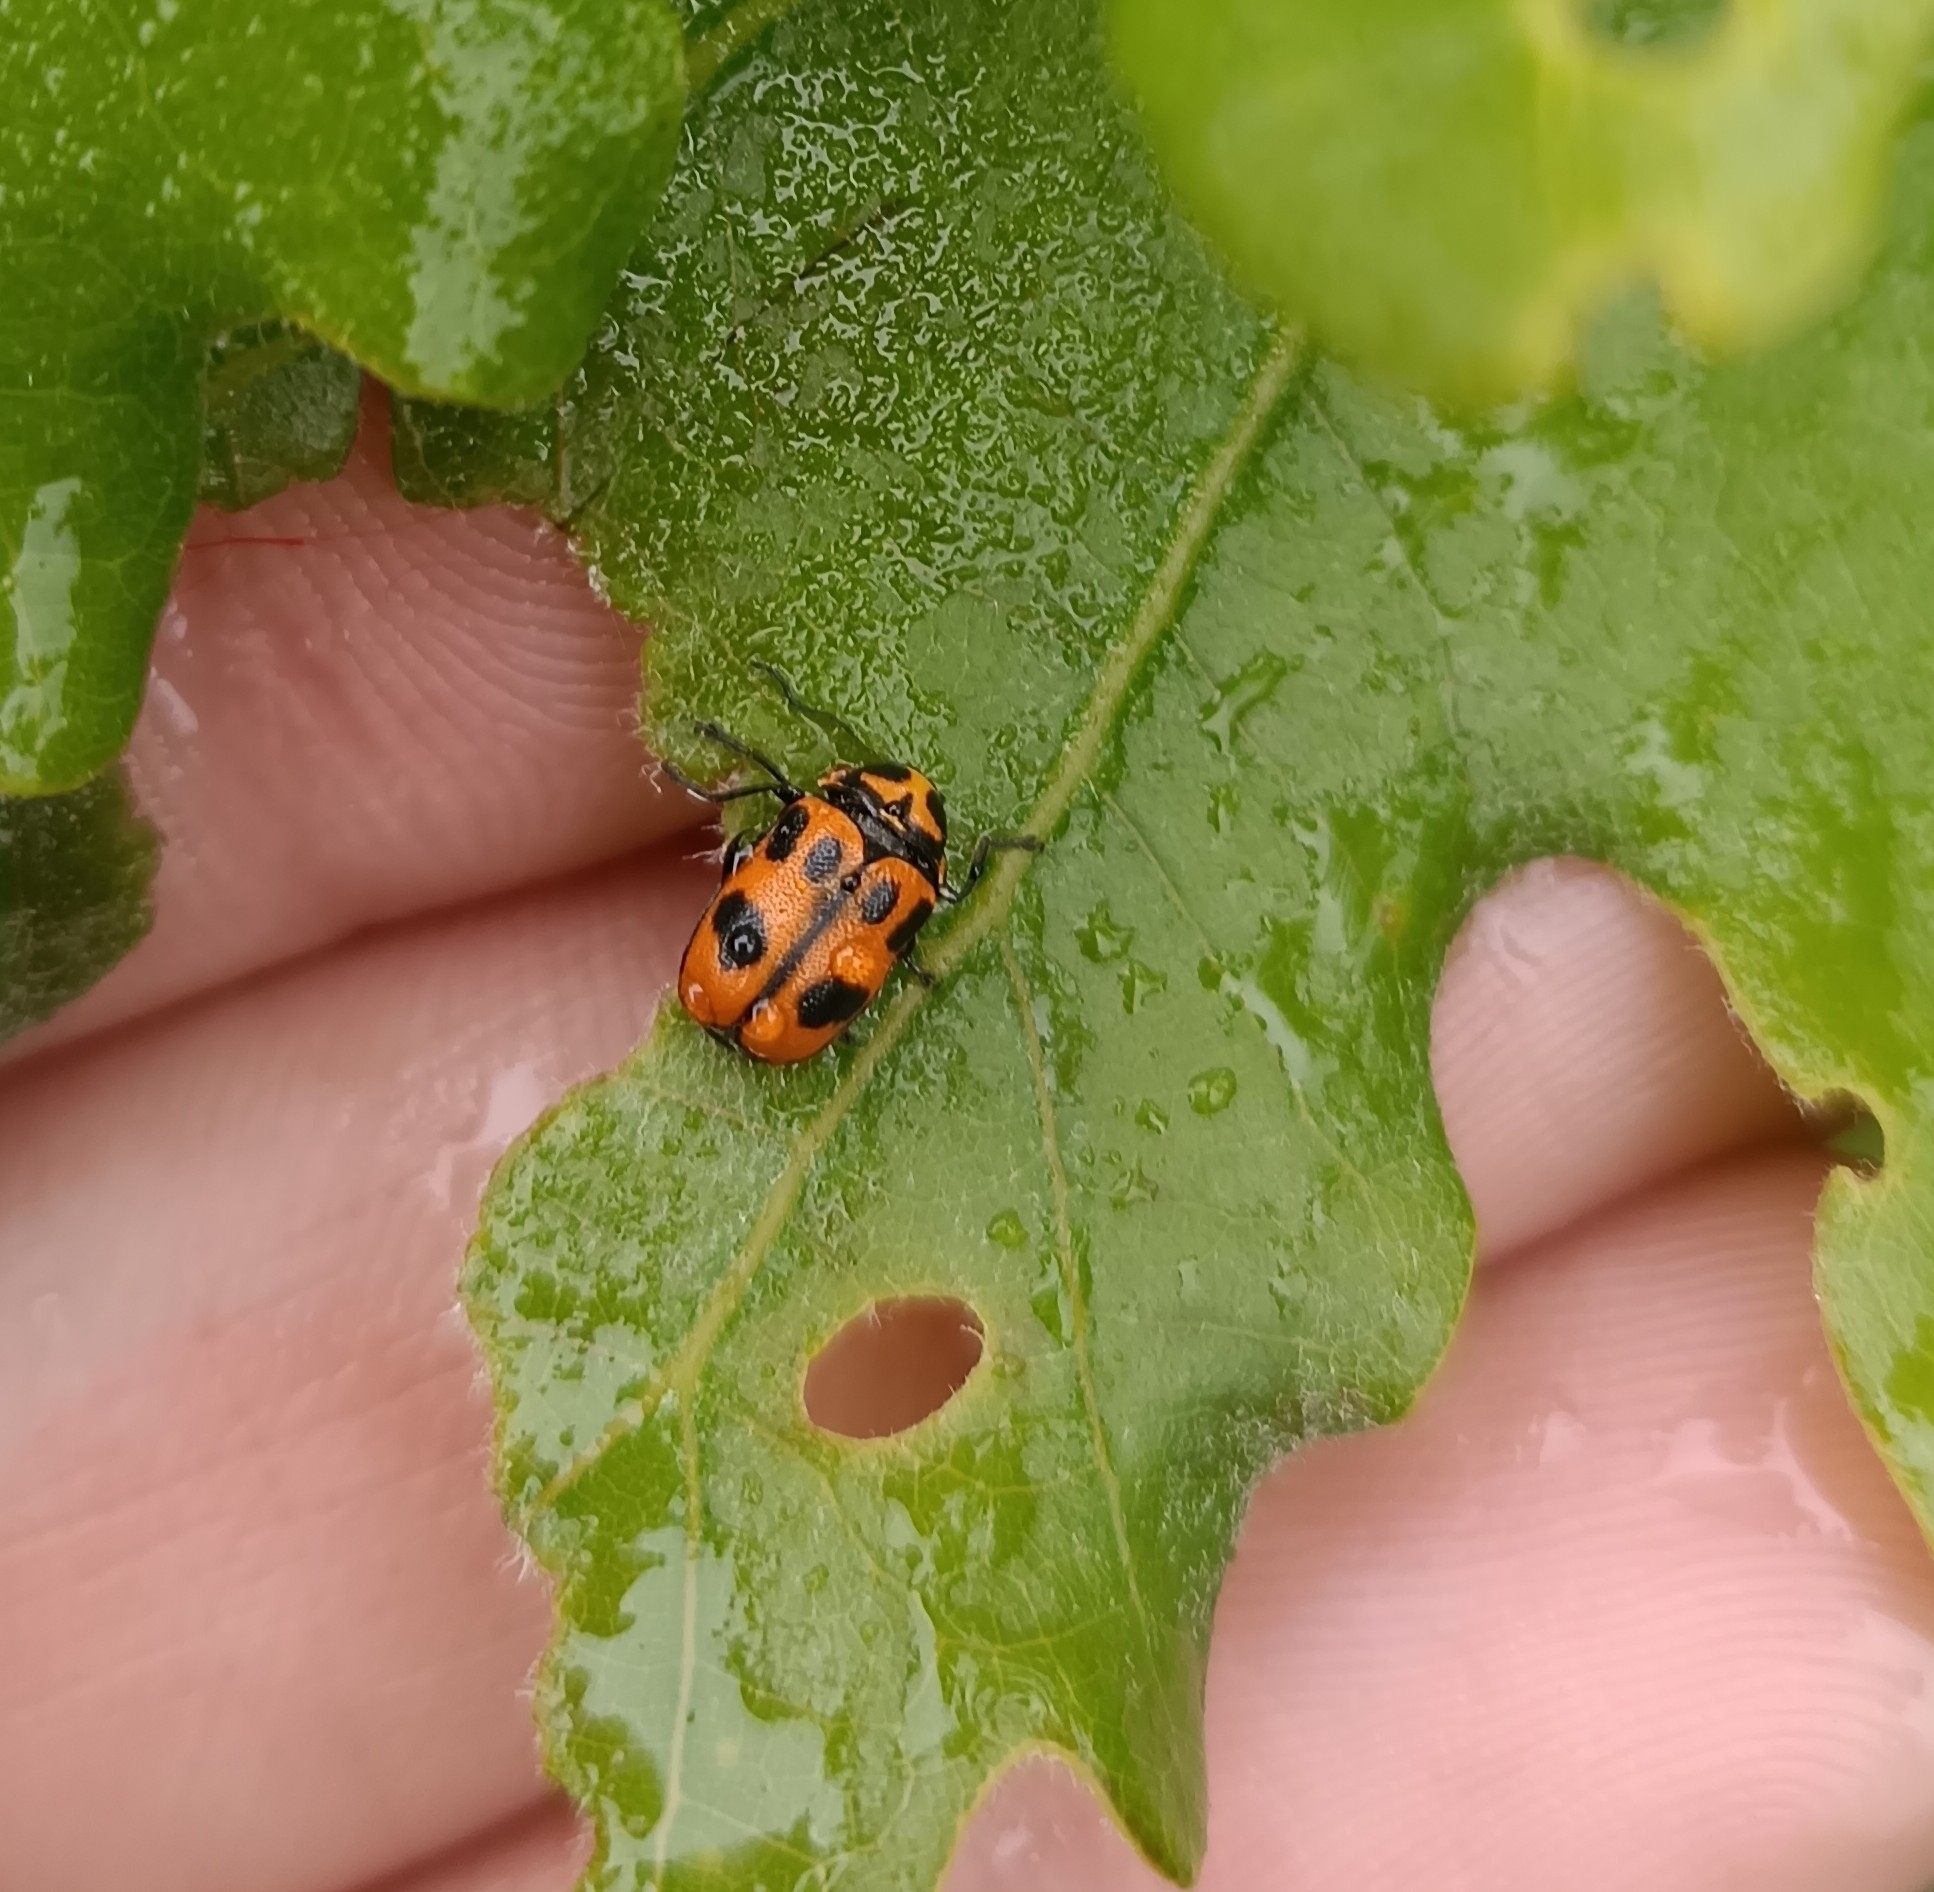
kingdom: Animalia
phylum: Arthropoda
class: Insecta
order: Coleoptera
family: Chrysomelidae
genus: Cryptocephalus
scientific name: Cryptocephalus sexpunctatus
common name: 6 spotted pot beetle
